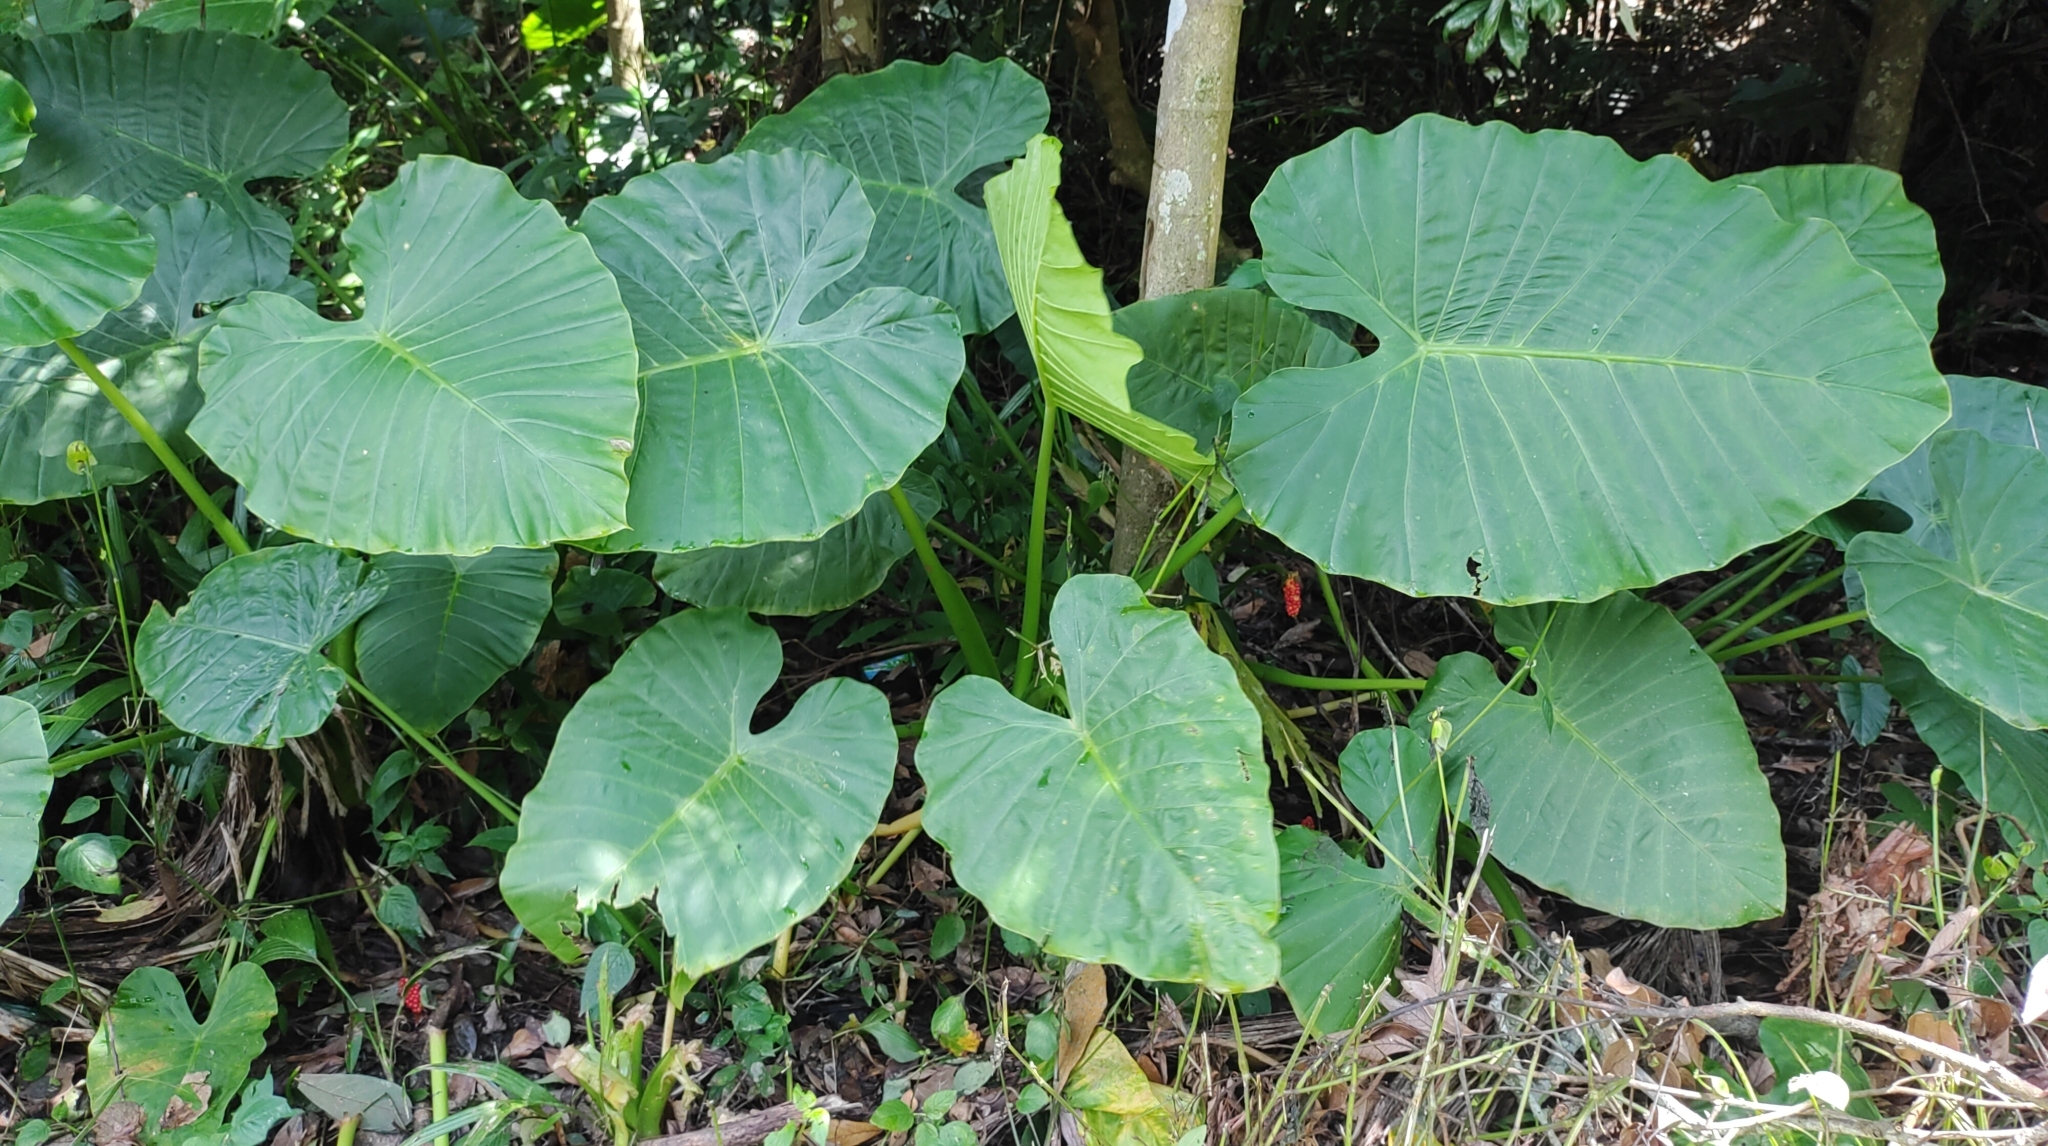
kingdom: Plantae
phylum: Tracheophyta
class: Liliopsida
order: Alismatales
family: Araceae
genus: Alocasia
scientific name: Alocasia odora
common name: Asian taro
